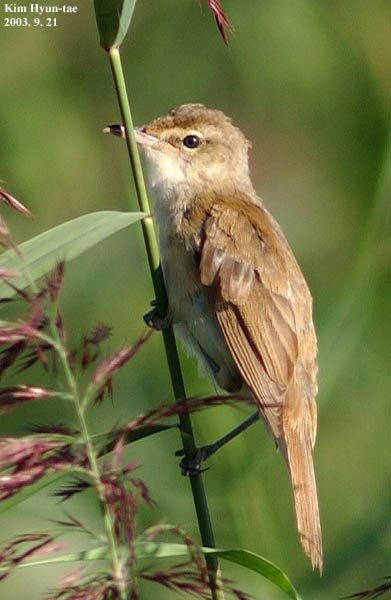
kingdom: Animalia
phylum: Chordata
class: Aves
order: Passeriformes
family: Acrocephalidae
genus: Acrocephalus
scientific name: Acrocephalus orientalis
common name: Oriental reed warbler
